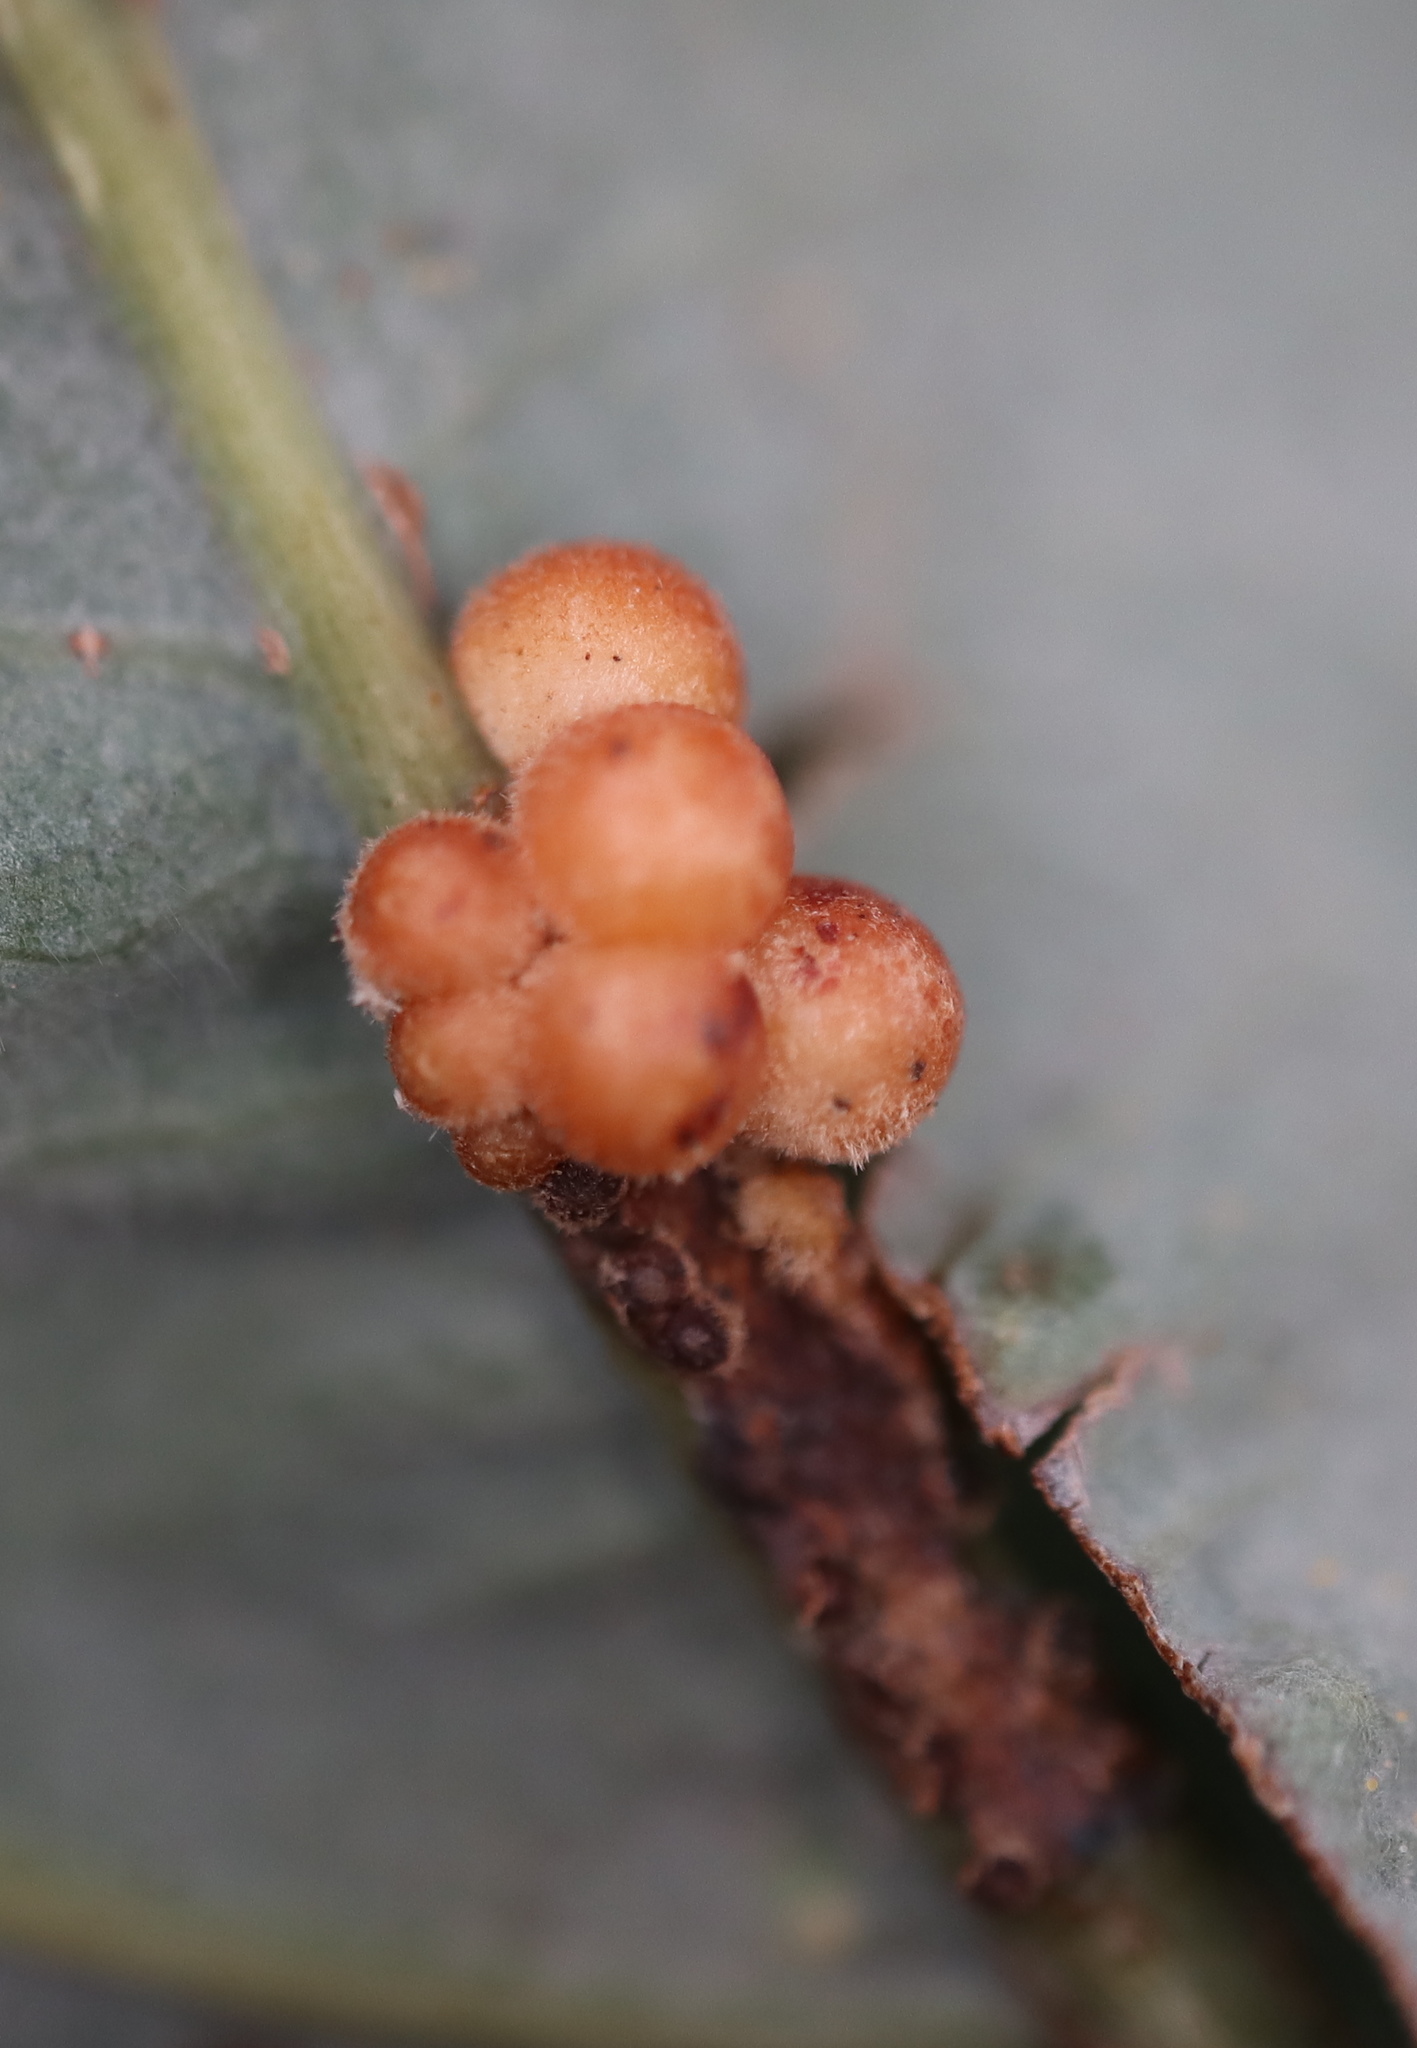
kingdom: Animalia
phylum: Arthropoda
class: Insecta
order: Hymenoptera
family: Cynipidae
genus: Andricus
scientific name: Andricus
